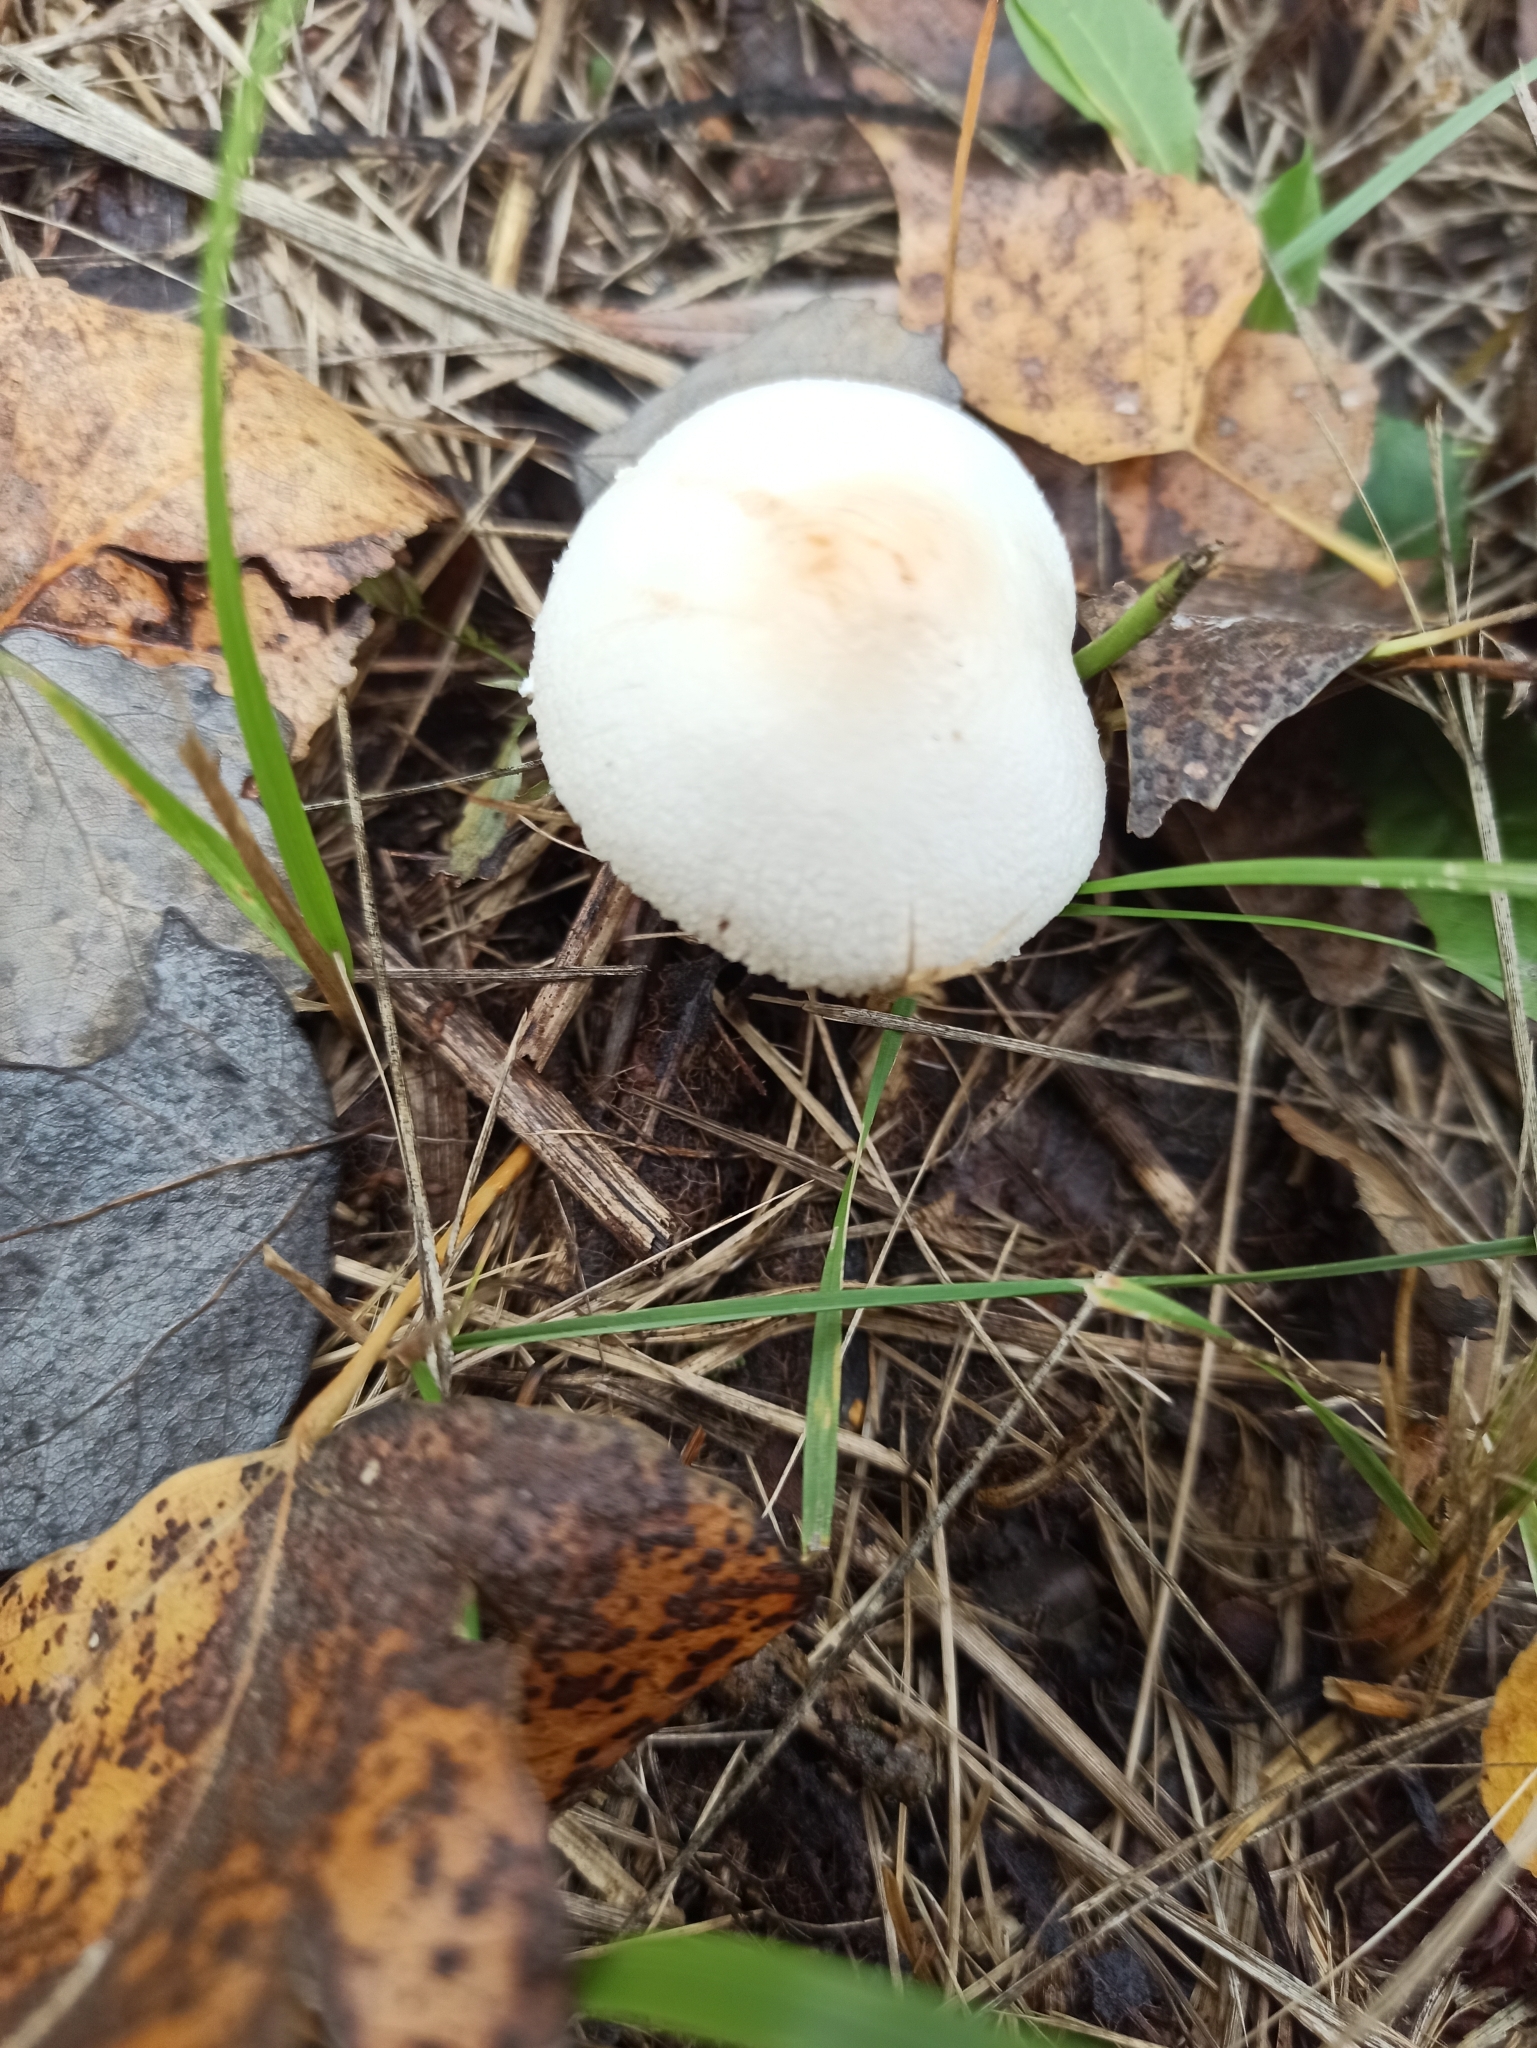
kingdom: Fungi
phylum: Basidiomycota
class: Agaricomycetes
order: Agaricales
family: Agaricaceae
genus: Lepiota
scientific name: Lepiota oreadiformis
